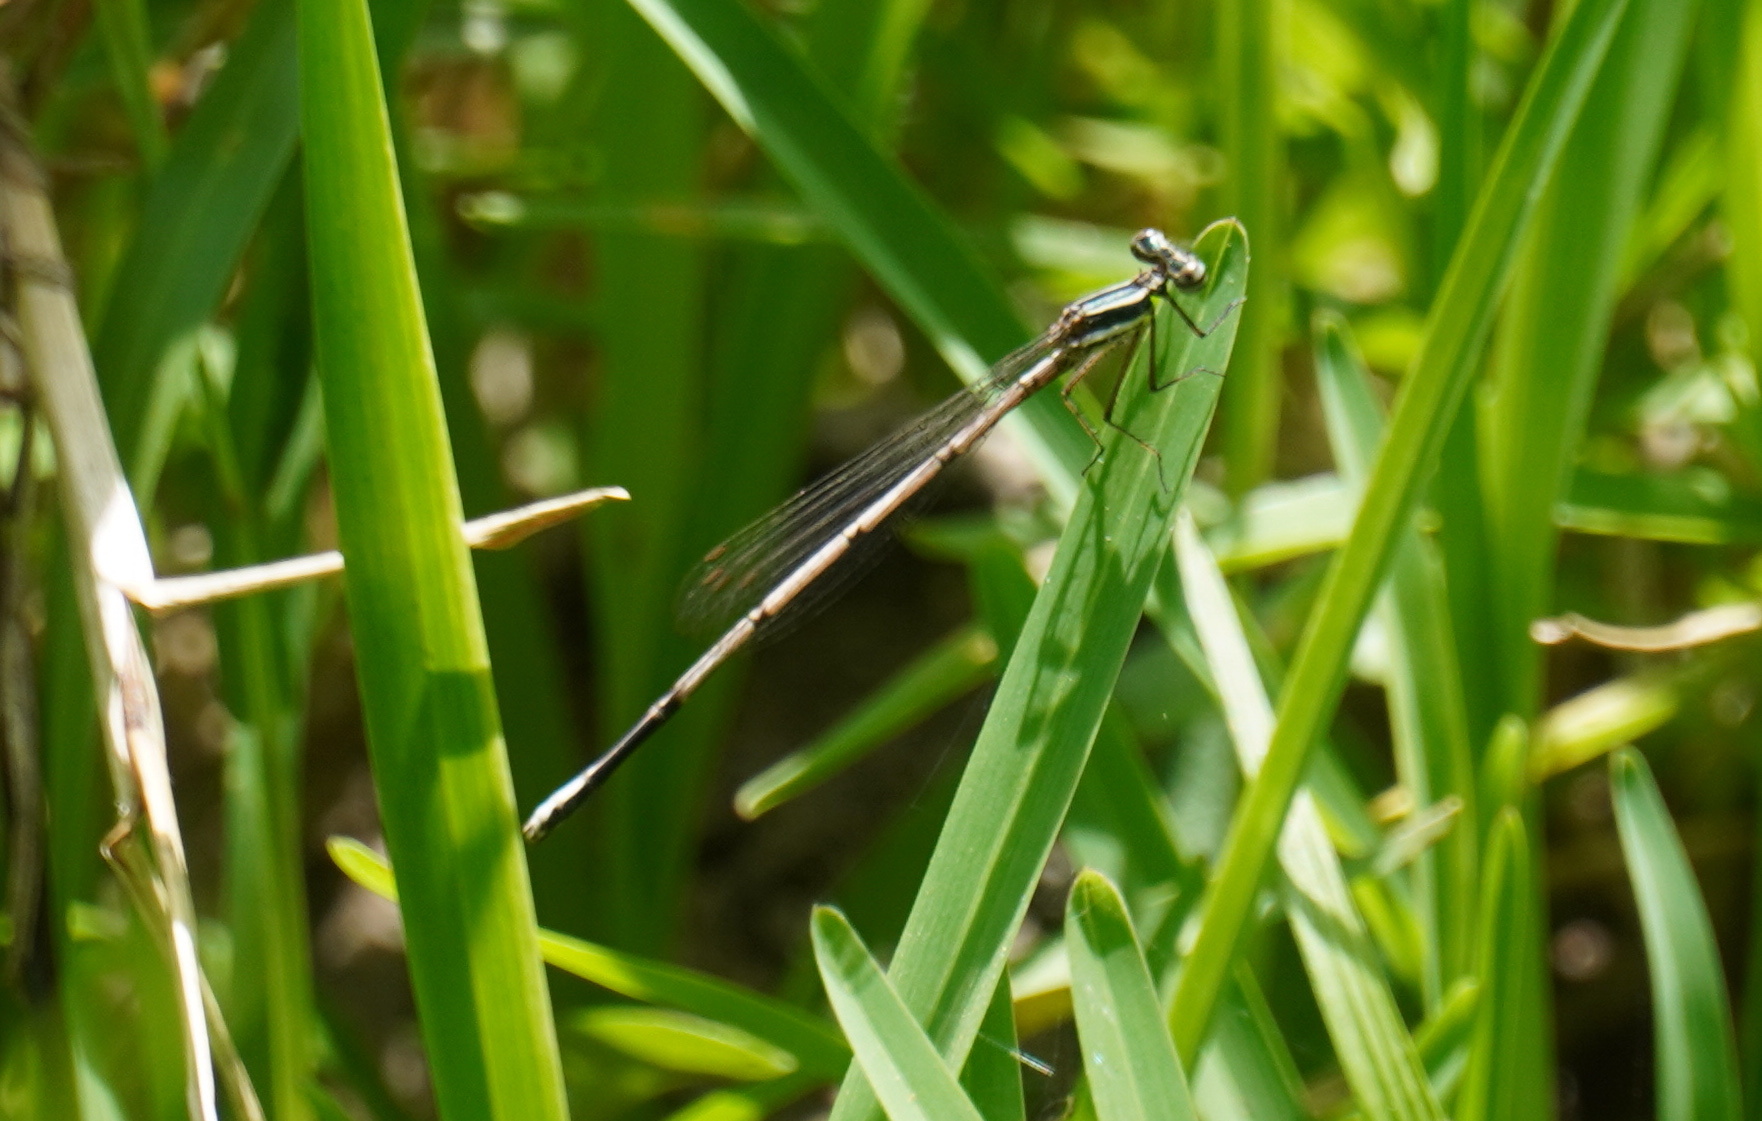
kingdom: Animalia
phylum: Arthropoda
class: Insecta
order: Odonata
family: Platycnemididae
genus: Elattoneura
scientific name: Elattoneura glauca
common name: Common threadtail
